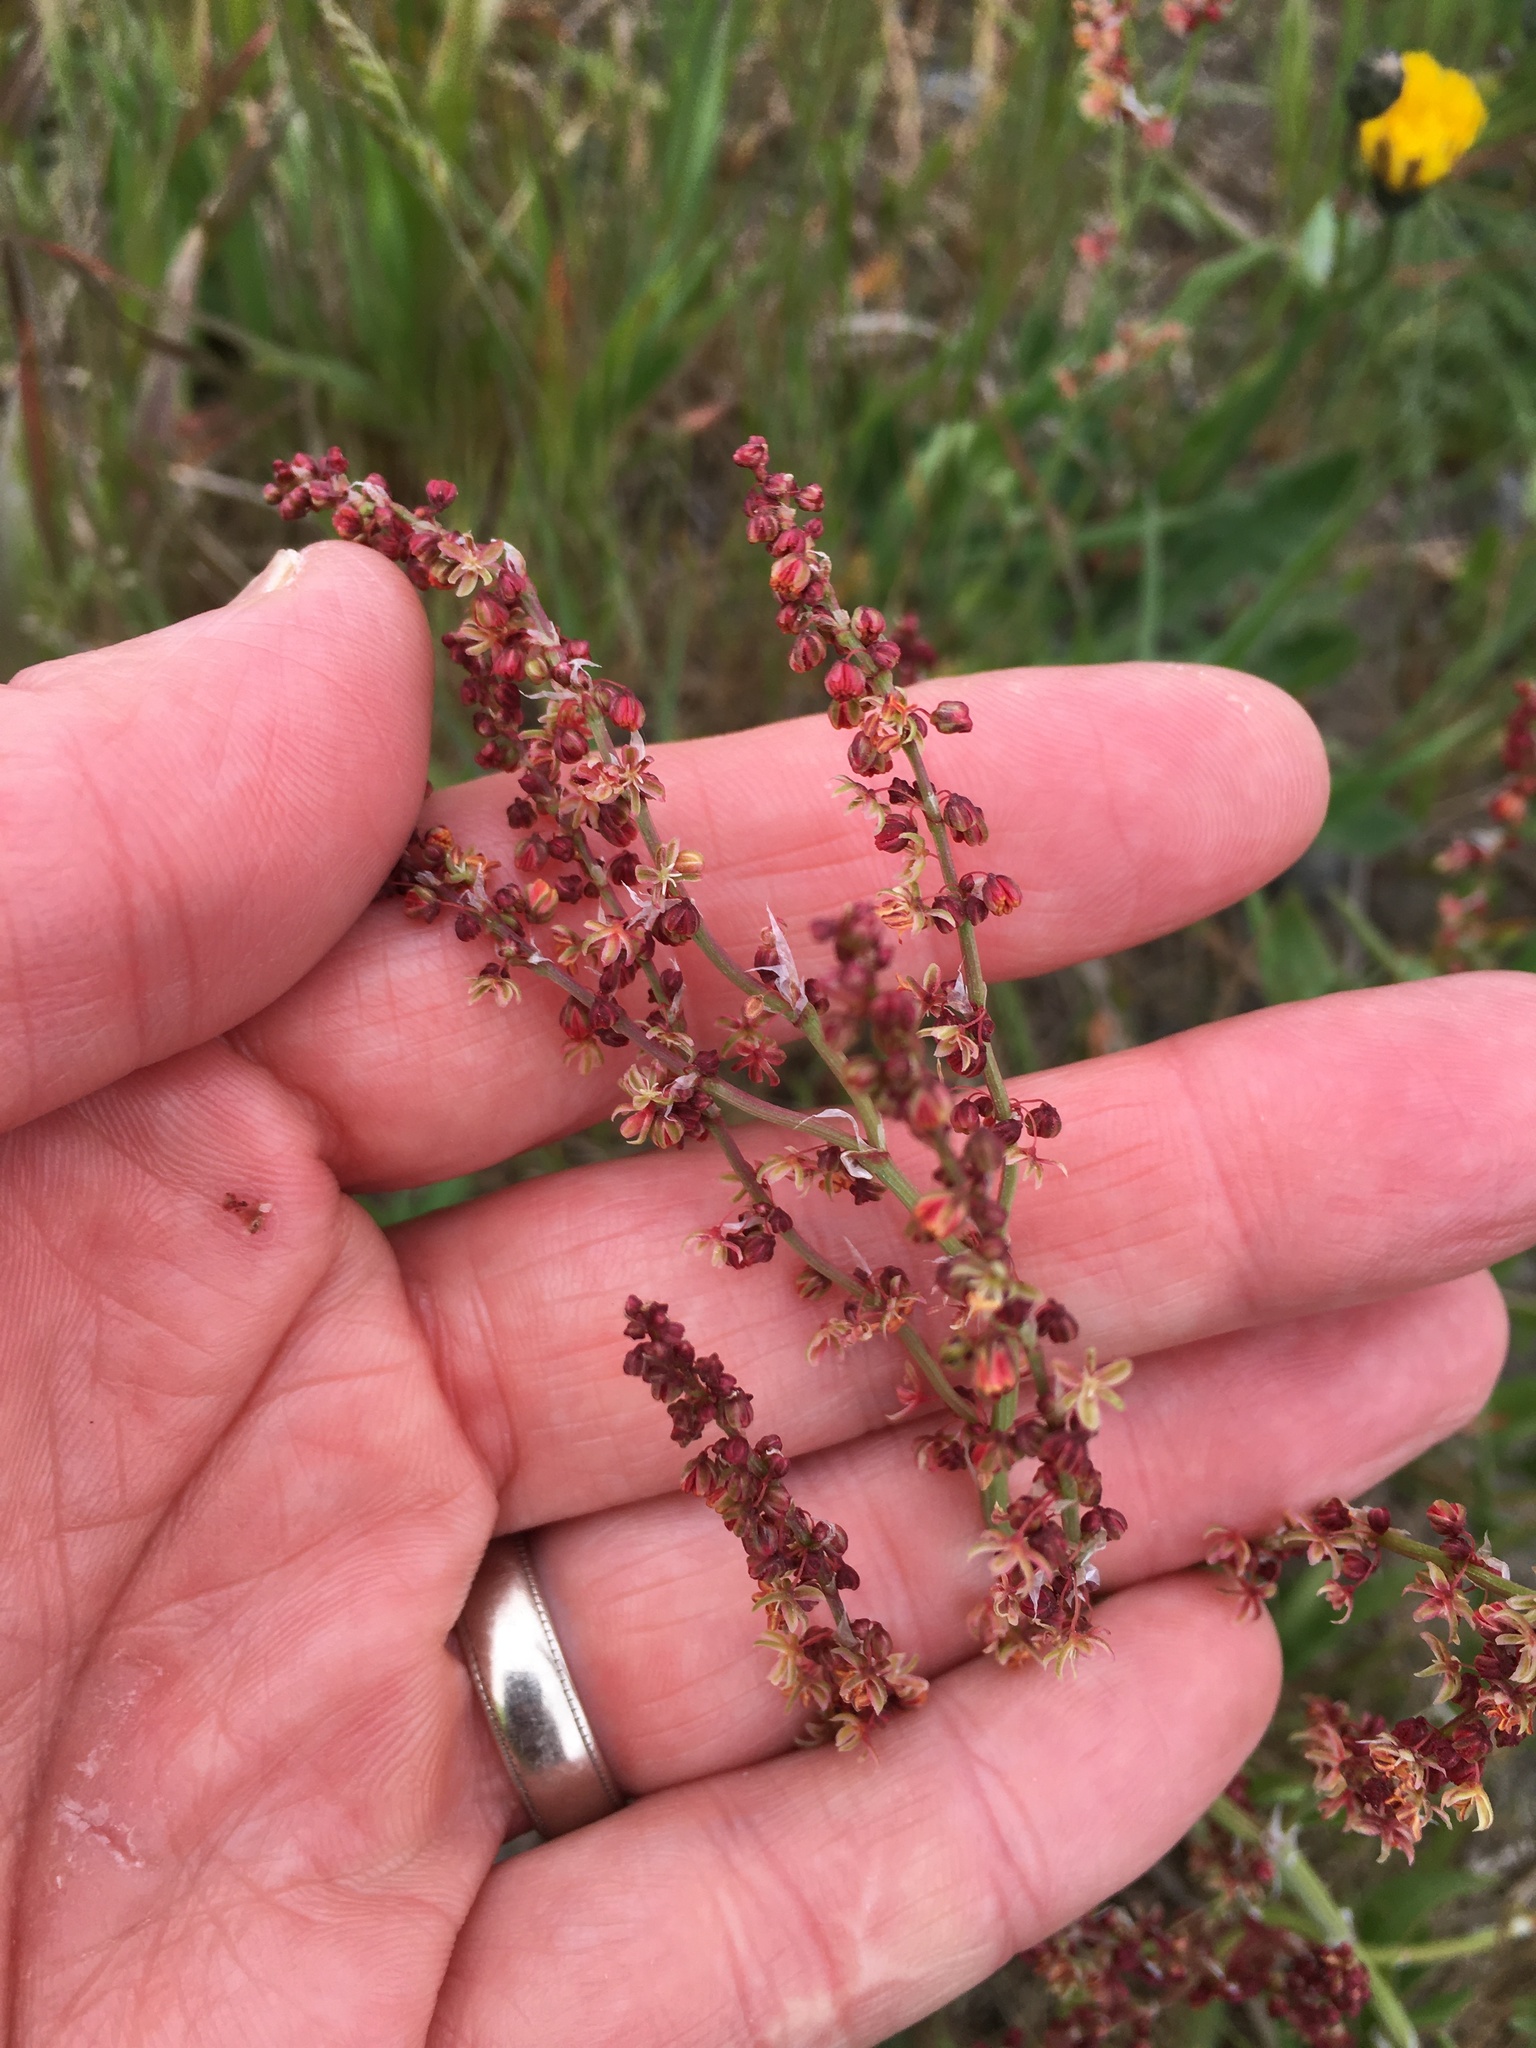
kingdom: Plantae
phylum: Tracheophyta
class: Magnoliopsida
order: Caryophyllales
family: Polygonaceae
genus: Rumex
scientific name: Rumex acetosella
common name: Common sheep sorrel
